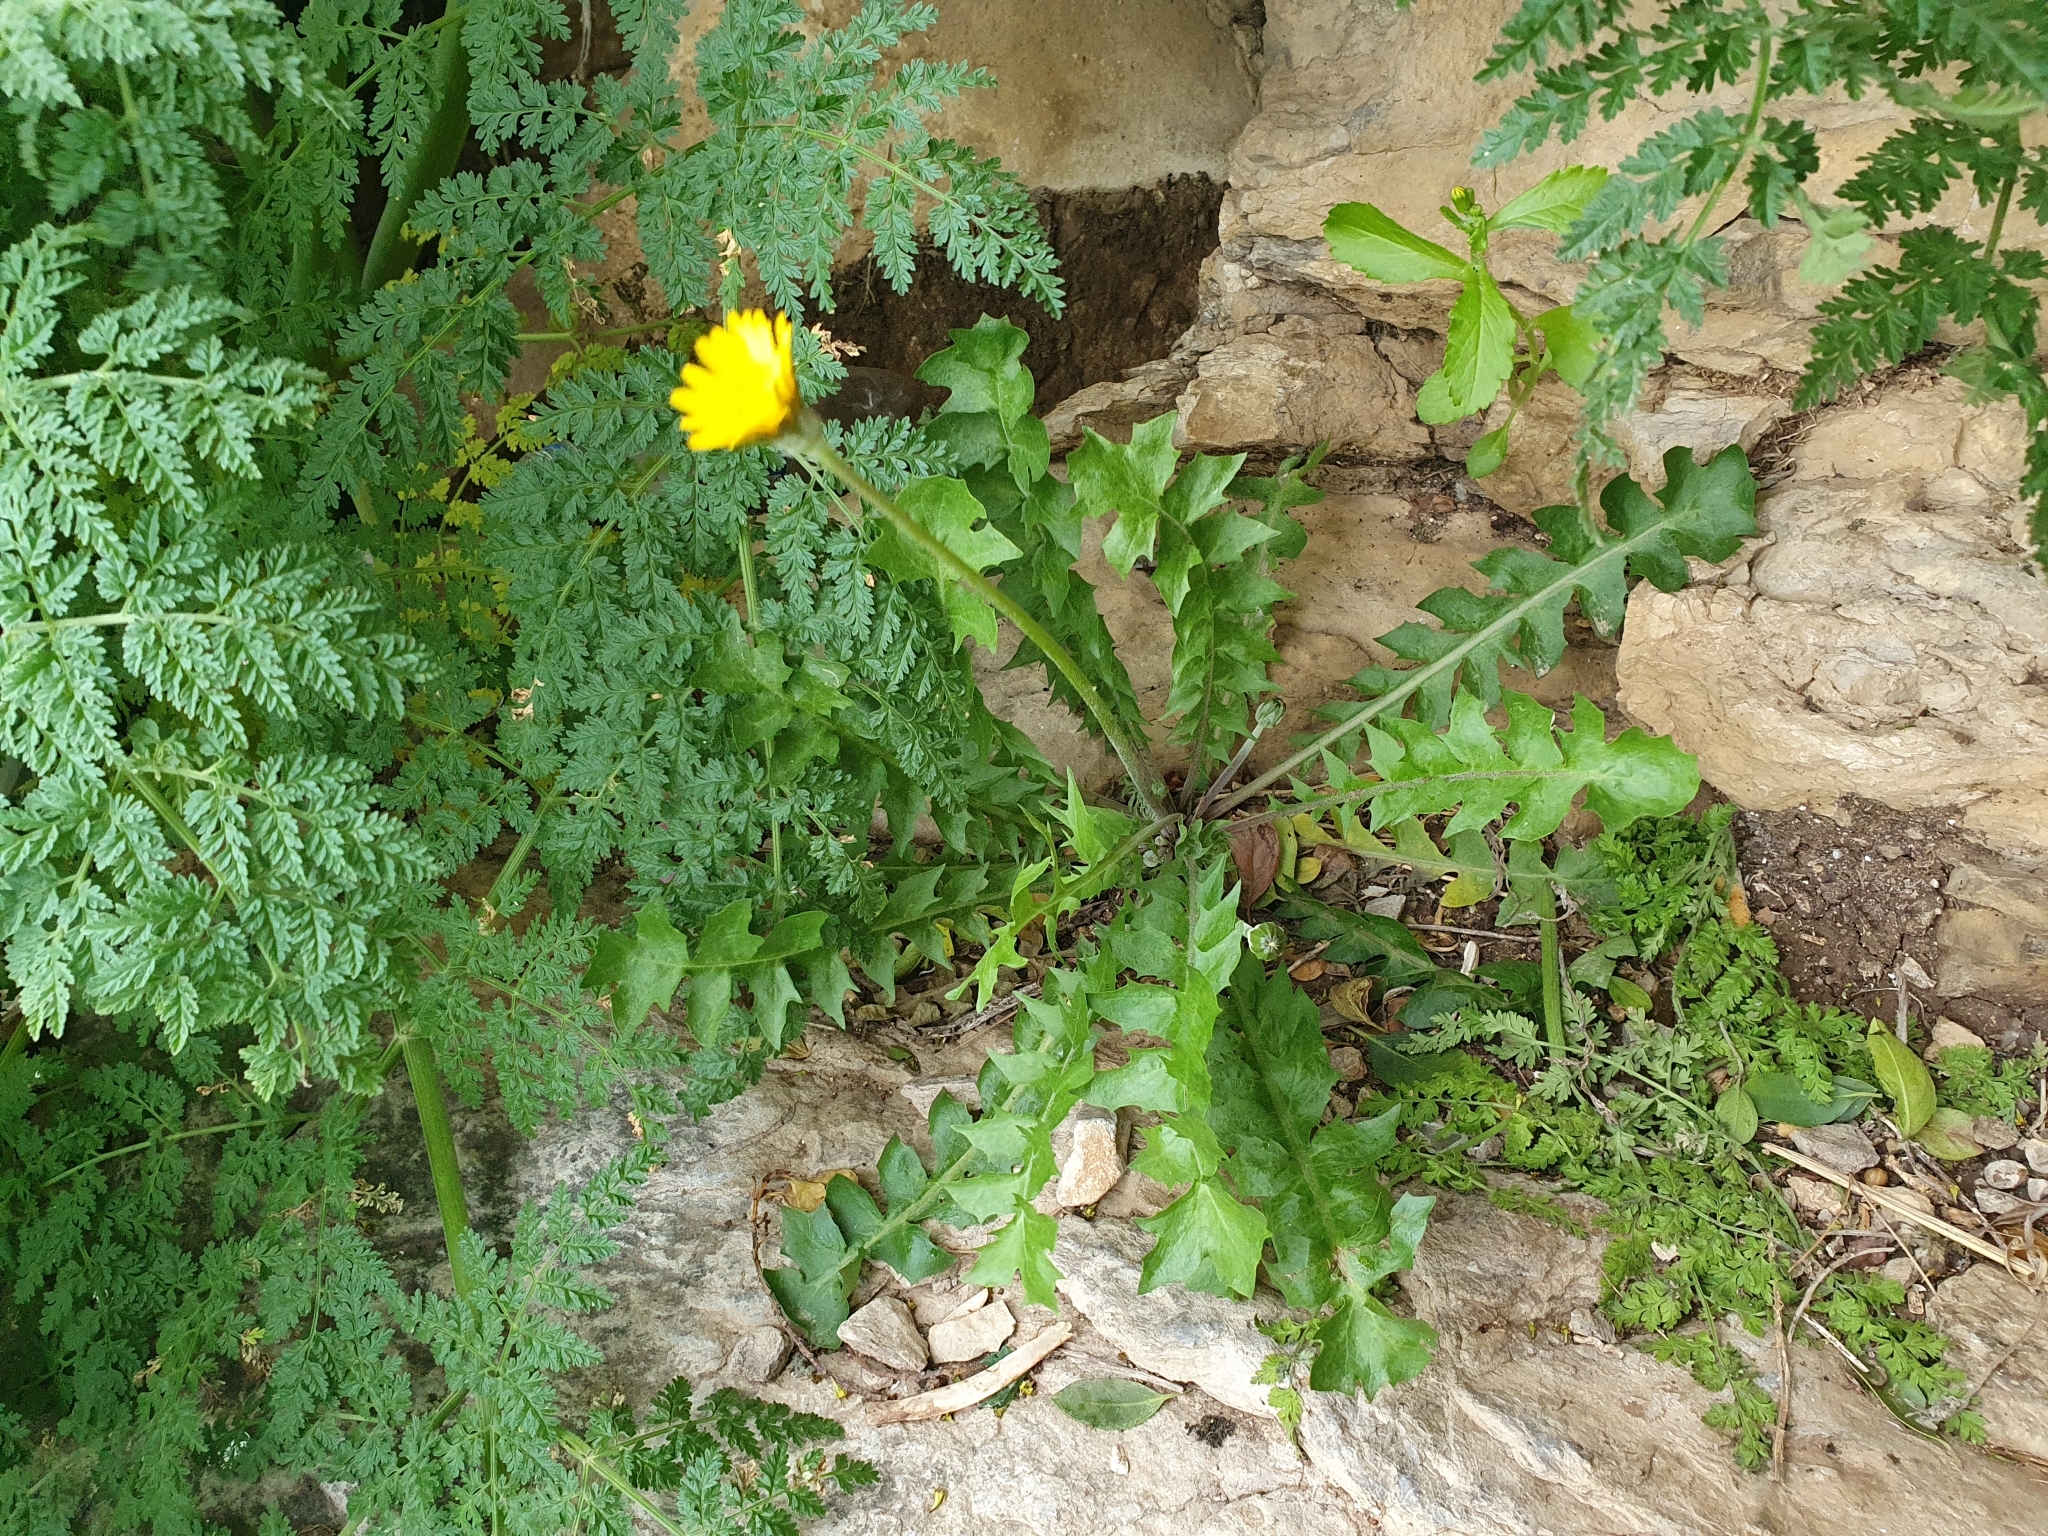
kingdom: Plantae
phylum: Tracheophyta
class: Magnoliopsida
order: Asterales
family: Asteraceae
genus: Hyoseris
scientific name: Hyoseris radiata
